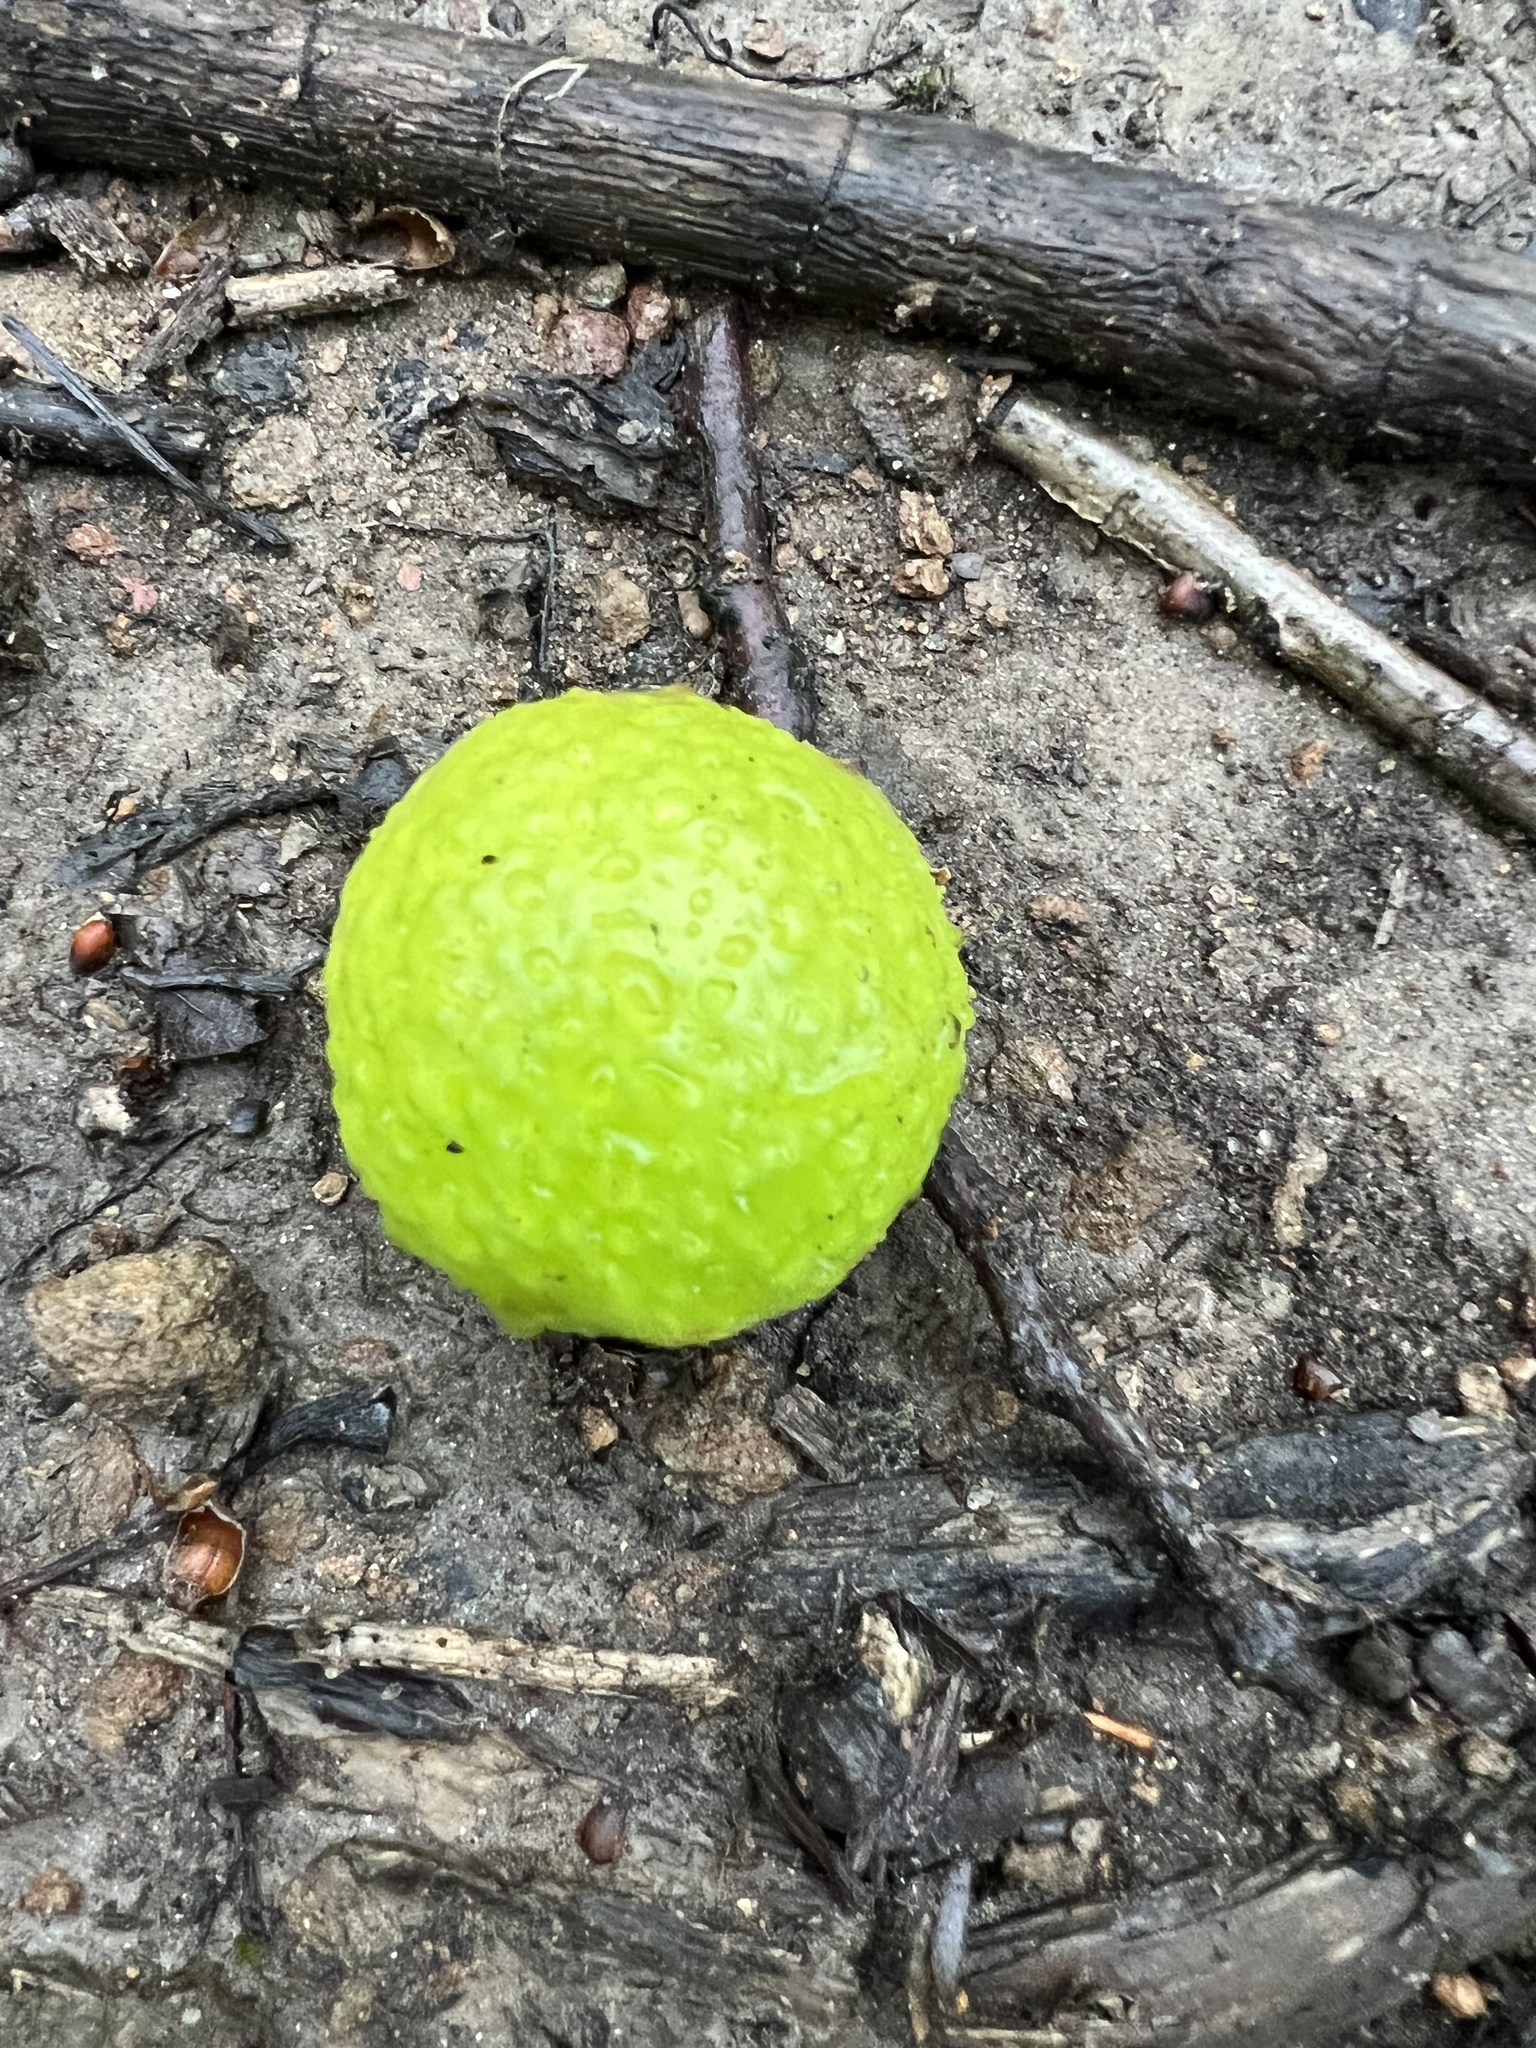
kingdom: Animalia
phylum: Arthropoda
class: Insecta
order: Hymenoptera
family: Cynipidae
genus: Amphibolips
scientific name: Amphibolips
